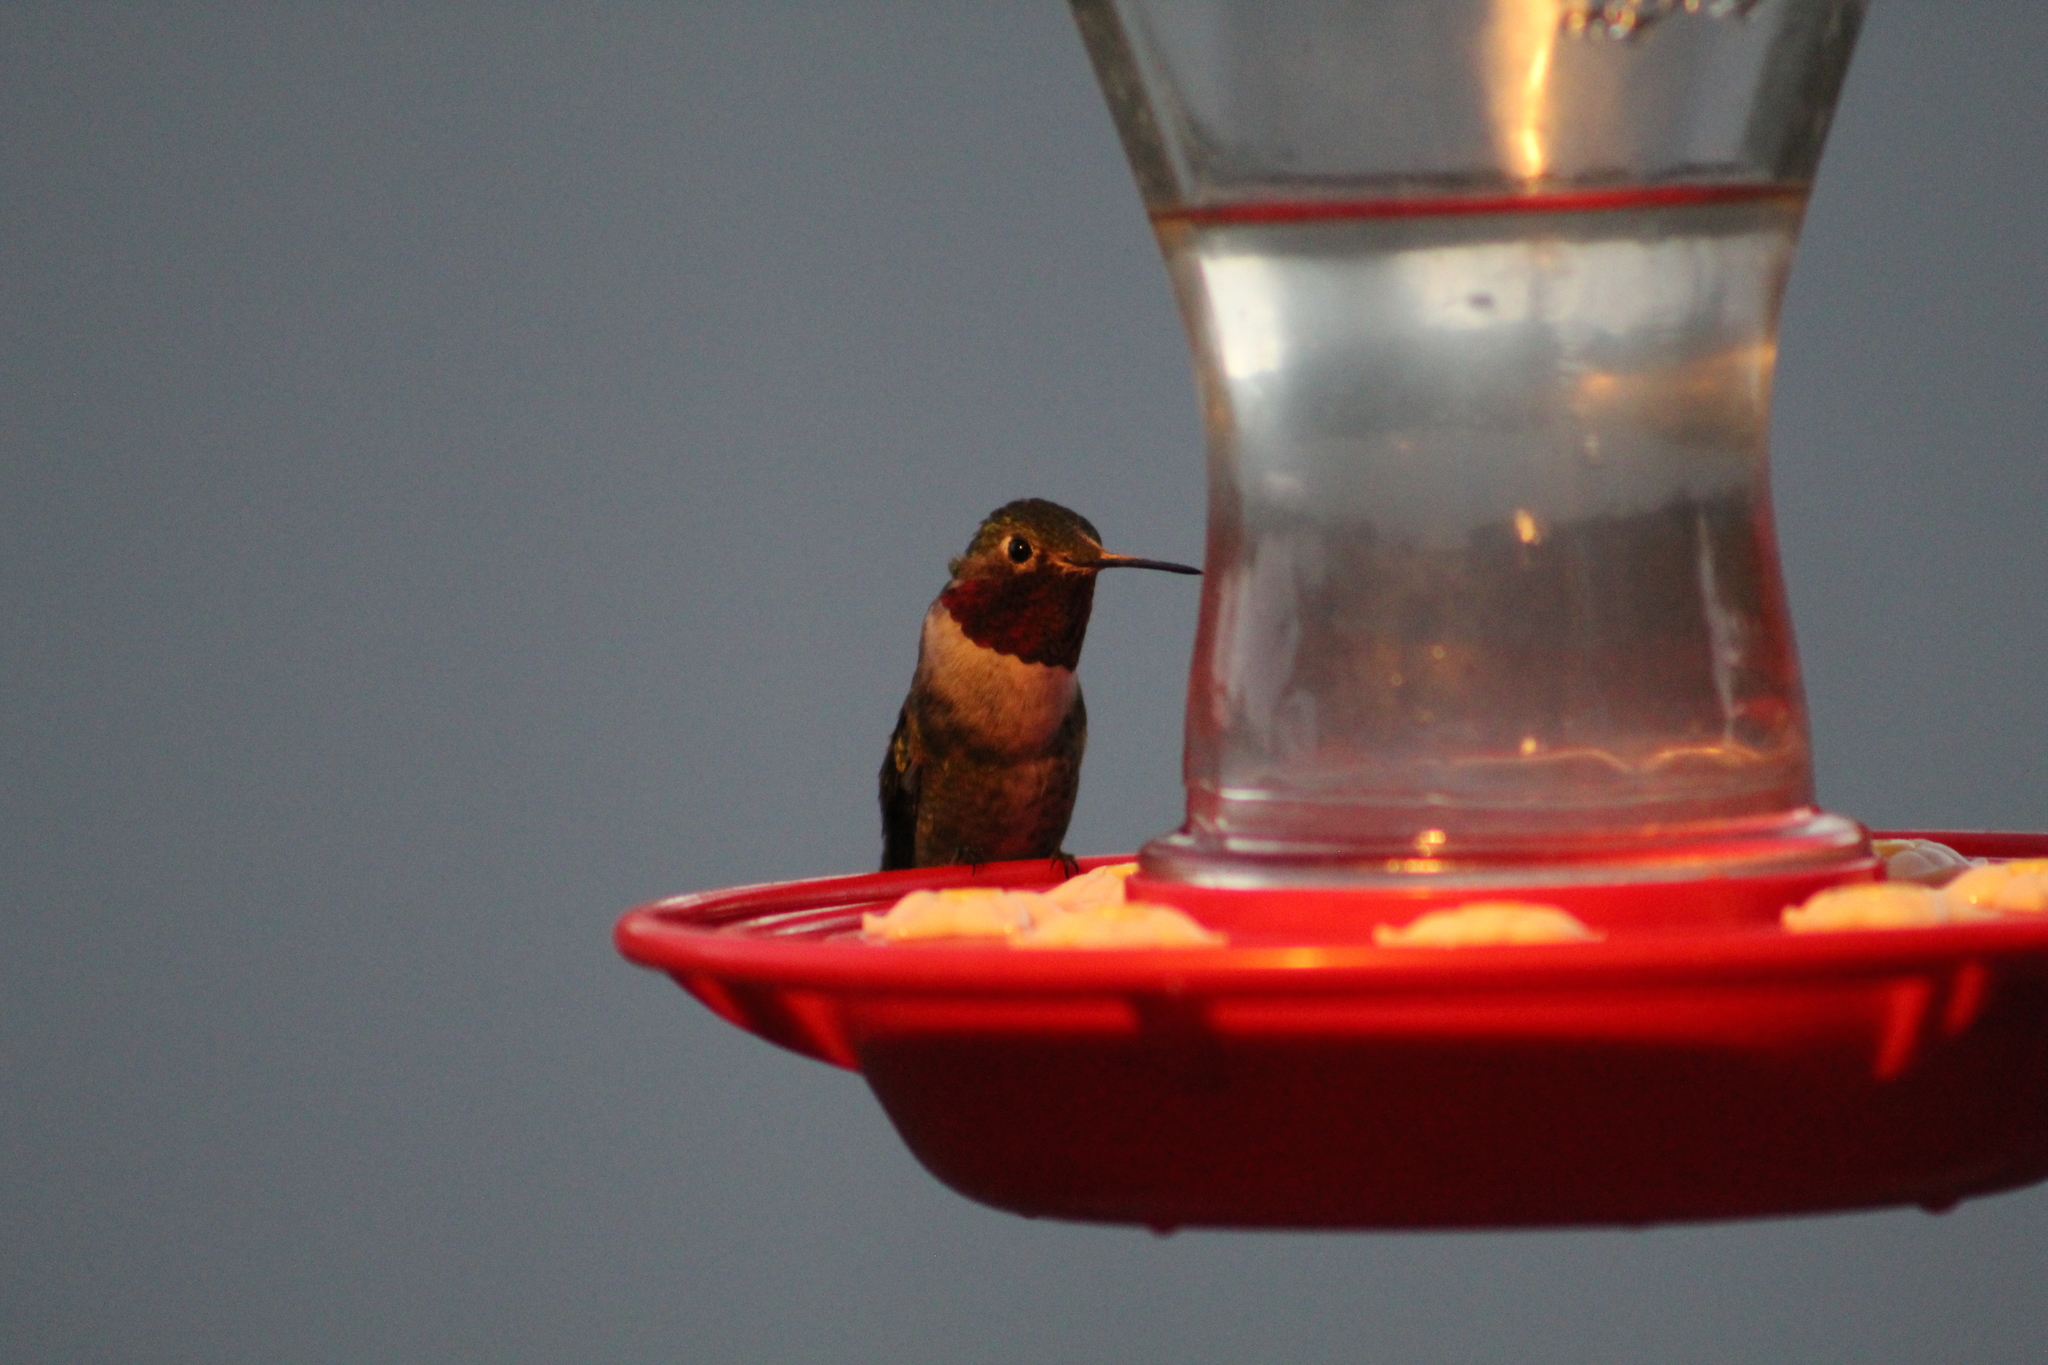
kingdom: Animalia
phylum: Chordata
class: Aves
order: Apodiformes
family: Trochilidae
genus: Selasphorus
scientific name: Selasphorus platycercus
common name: Broad-tailed hummingbird
